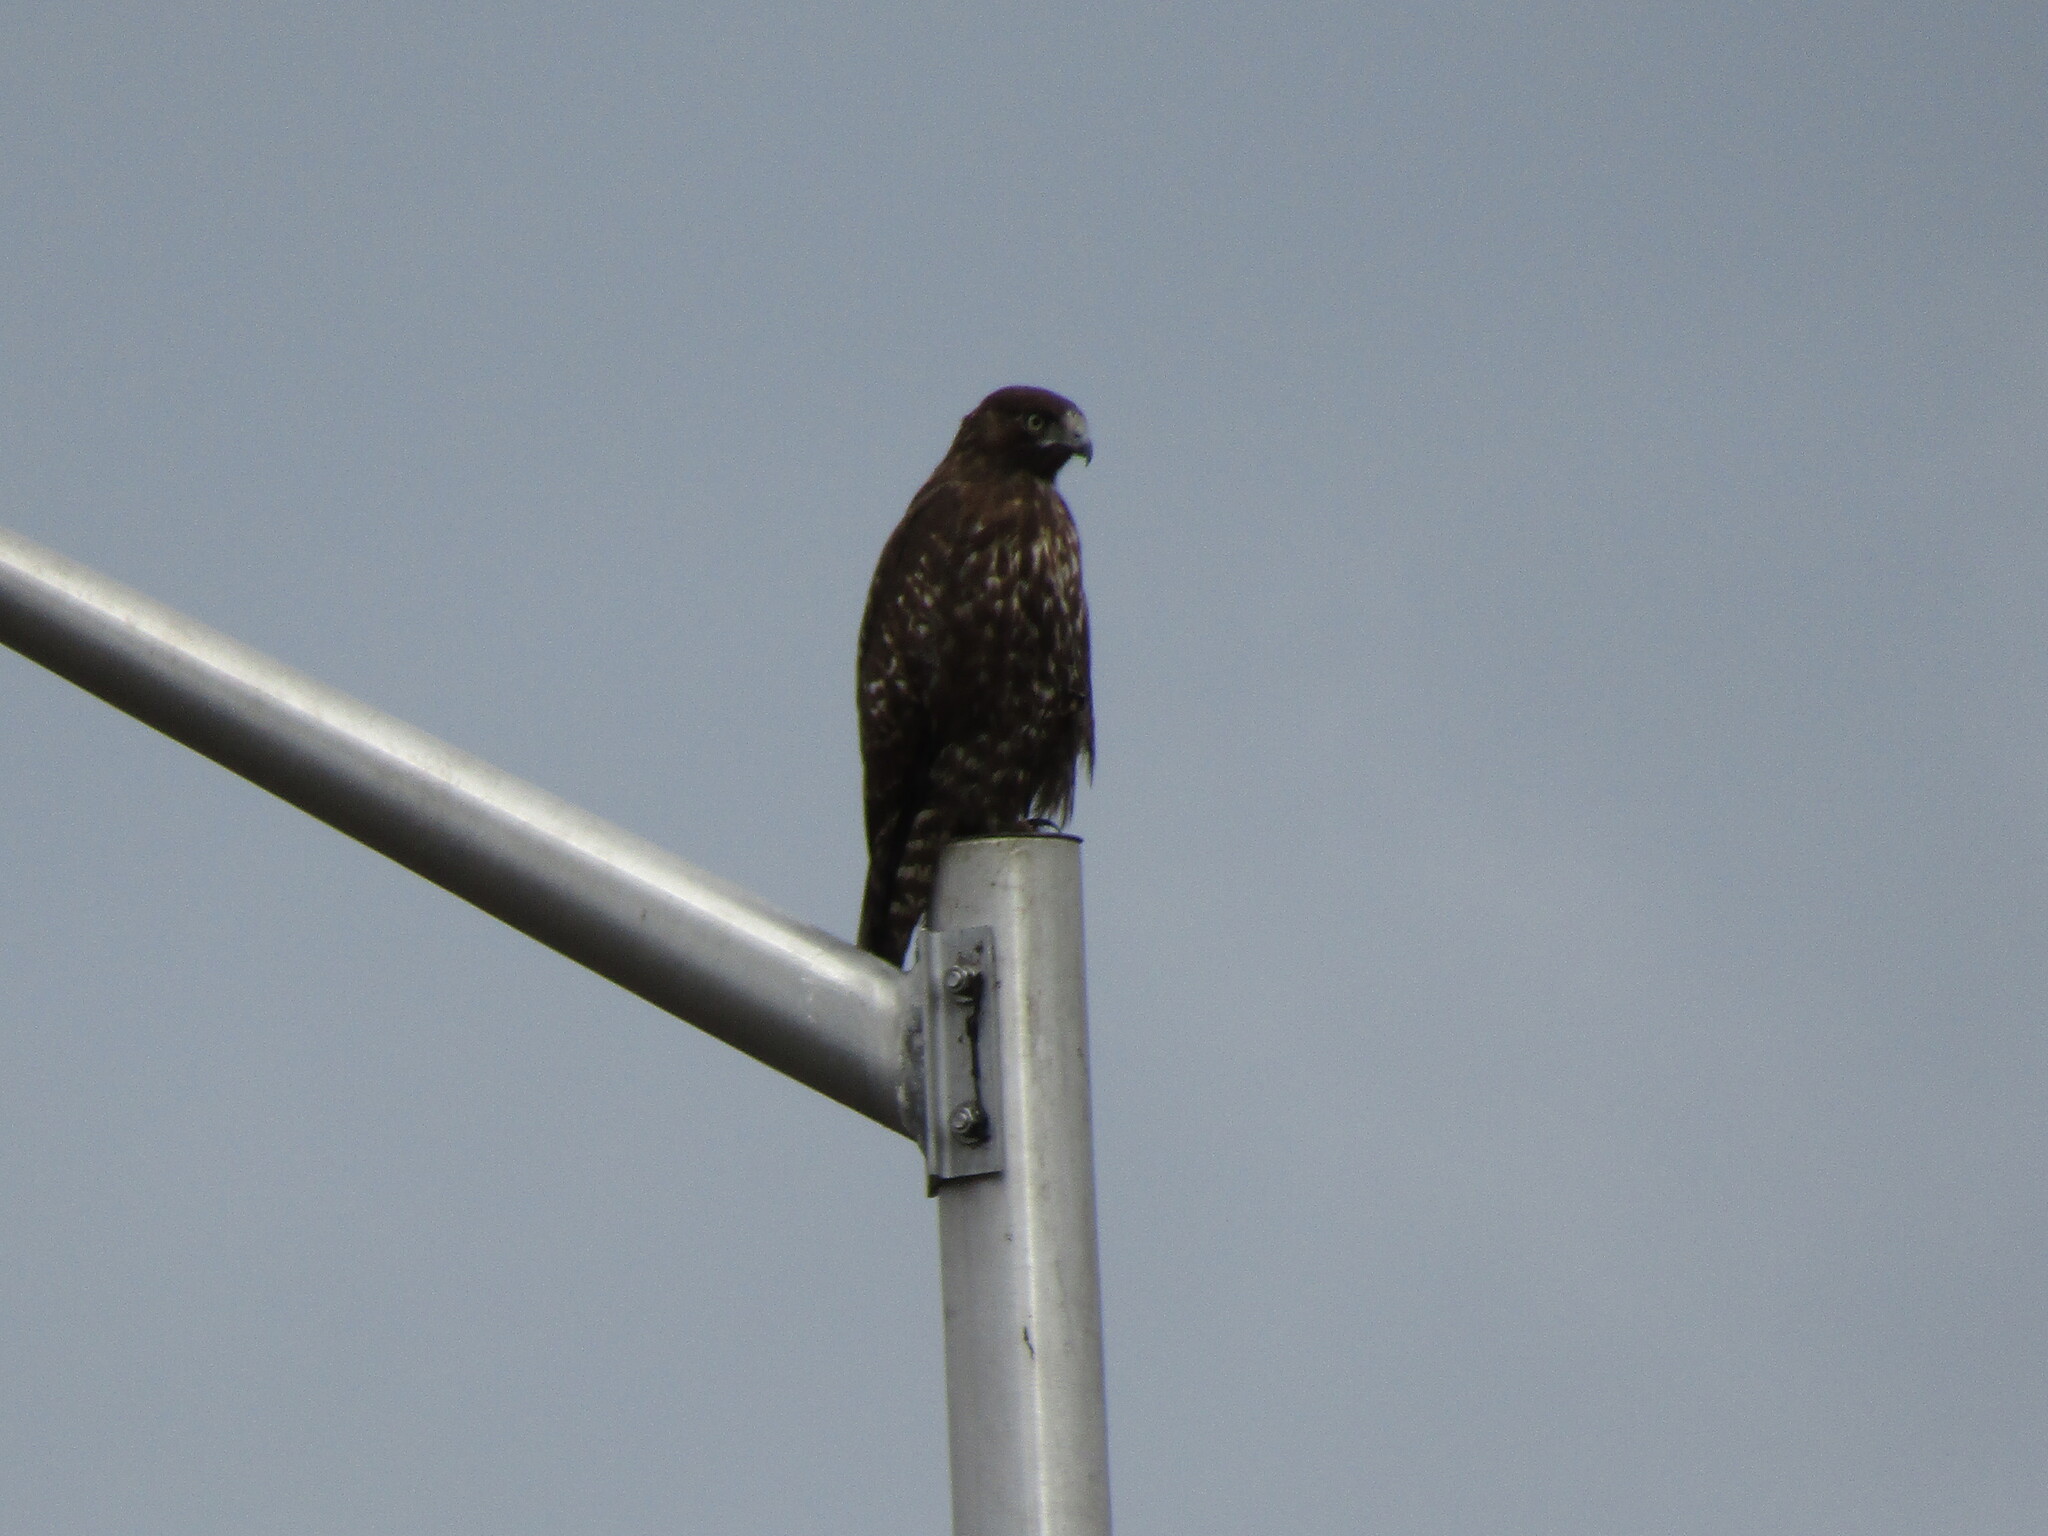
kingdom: Animalia
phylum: Chordata
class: Aves
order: Accipitriformes
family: Accipitridae
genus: Buteo
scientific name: Buteo jamaicensis
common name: Red-tailed hawk
